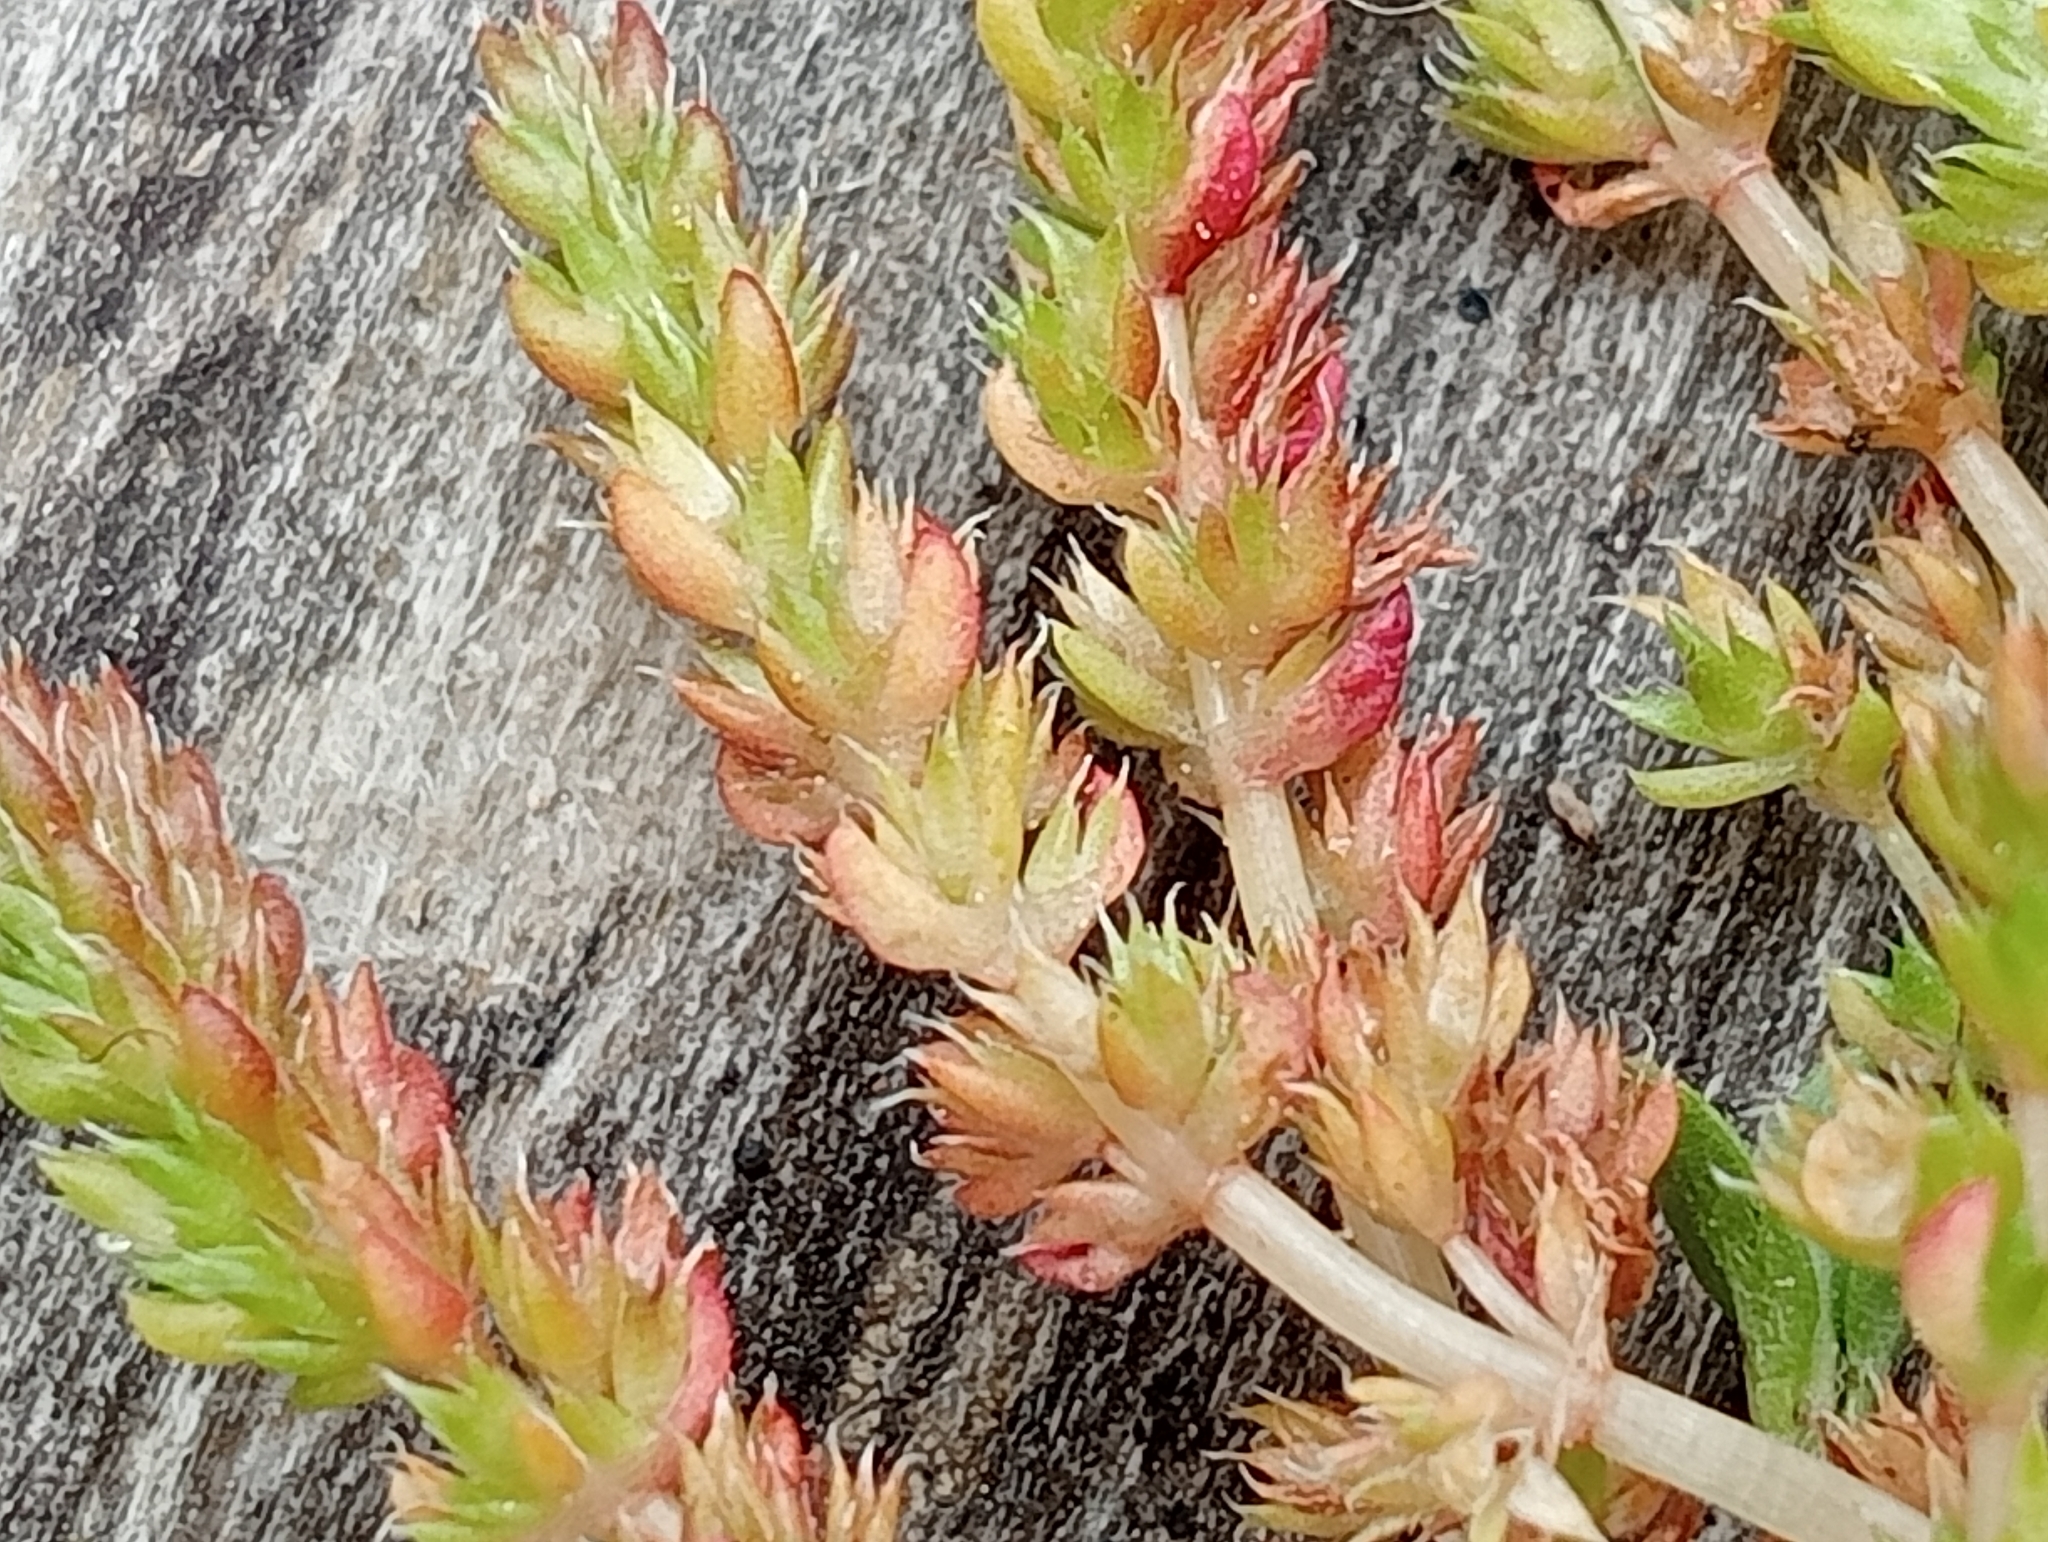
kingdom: Plantae
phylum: Tracheophyta
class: Magnoliopsida
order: Saxifragales
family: Crassulaceae
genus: Crassula
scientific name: Crassula alata
